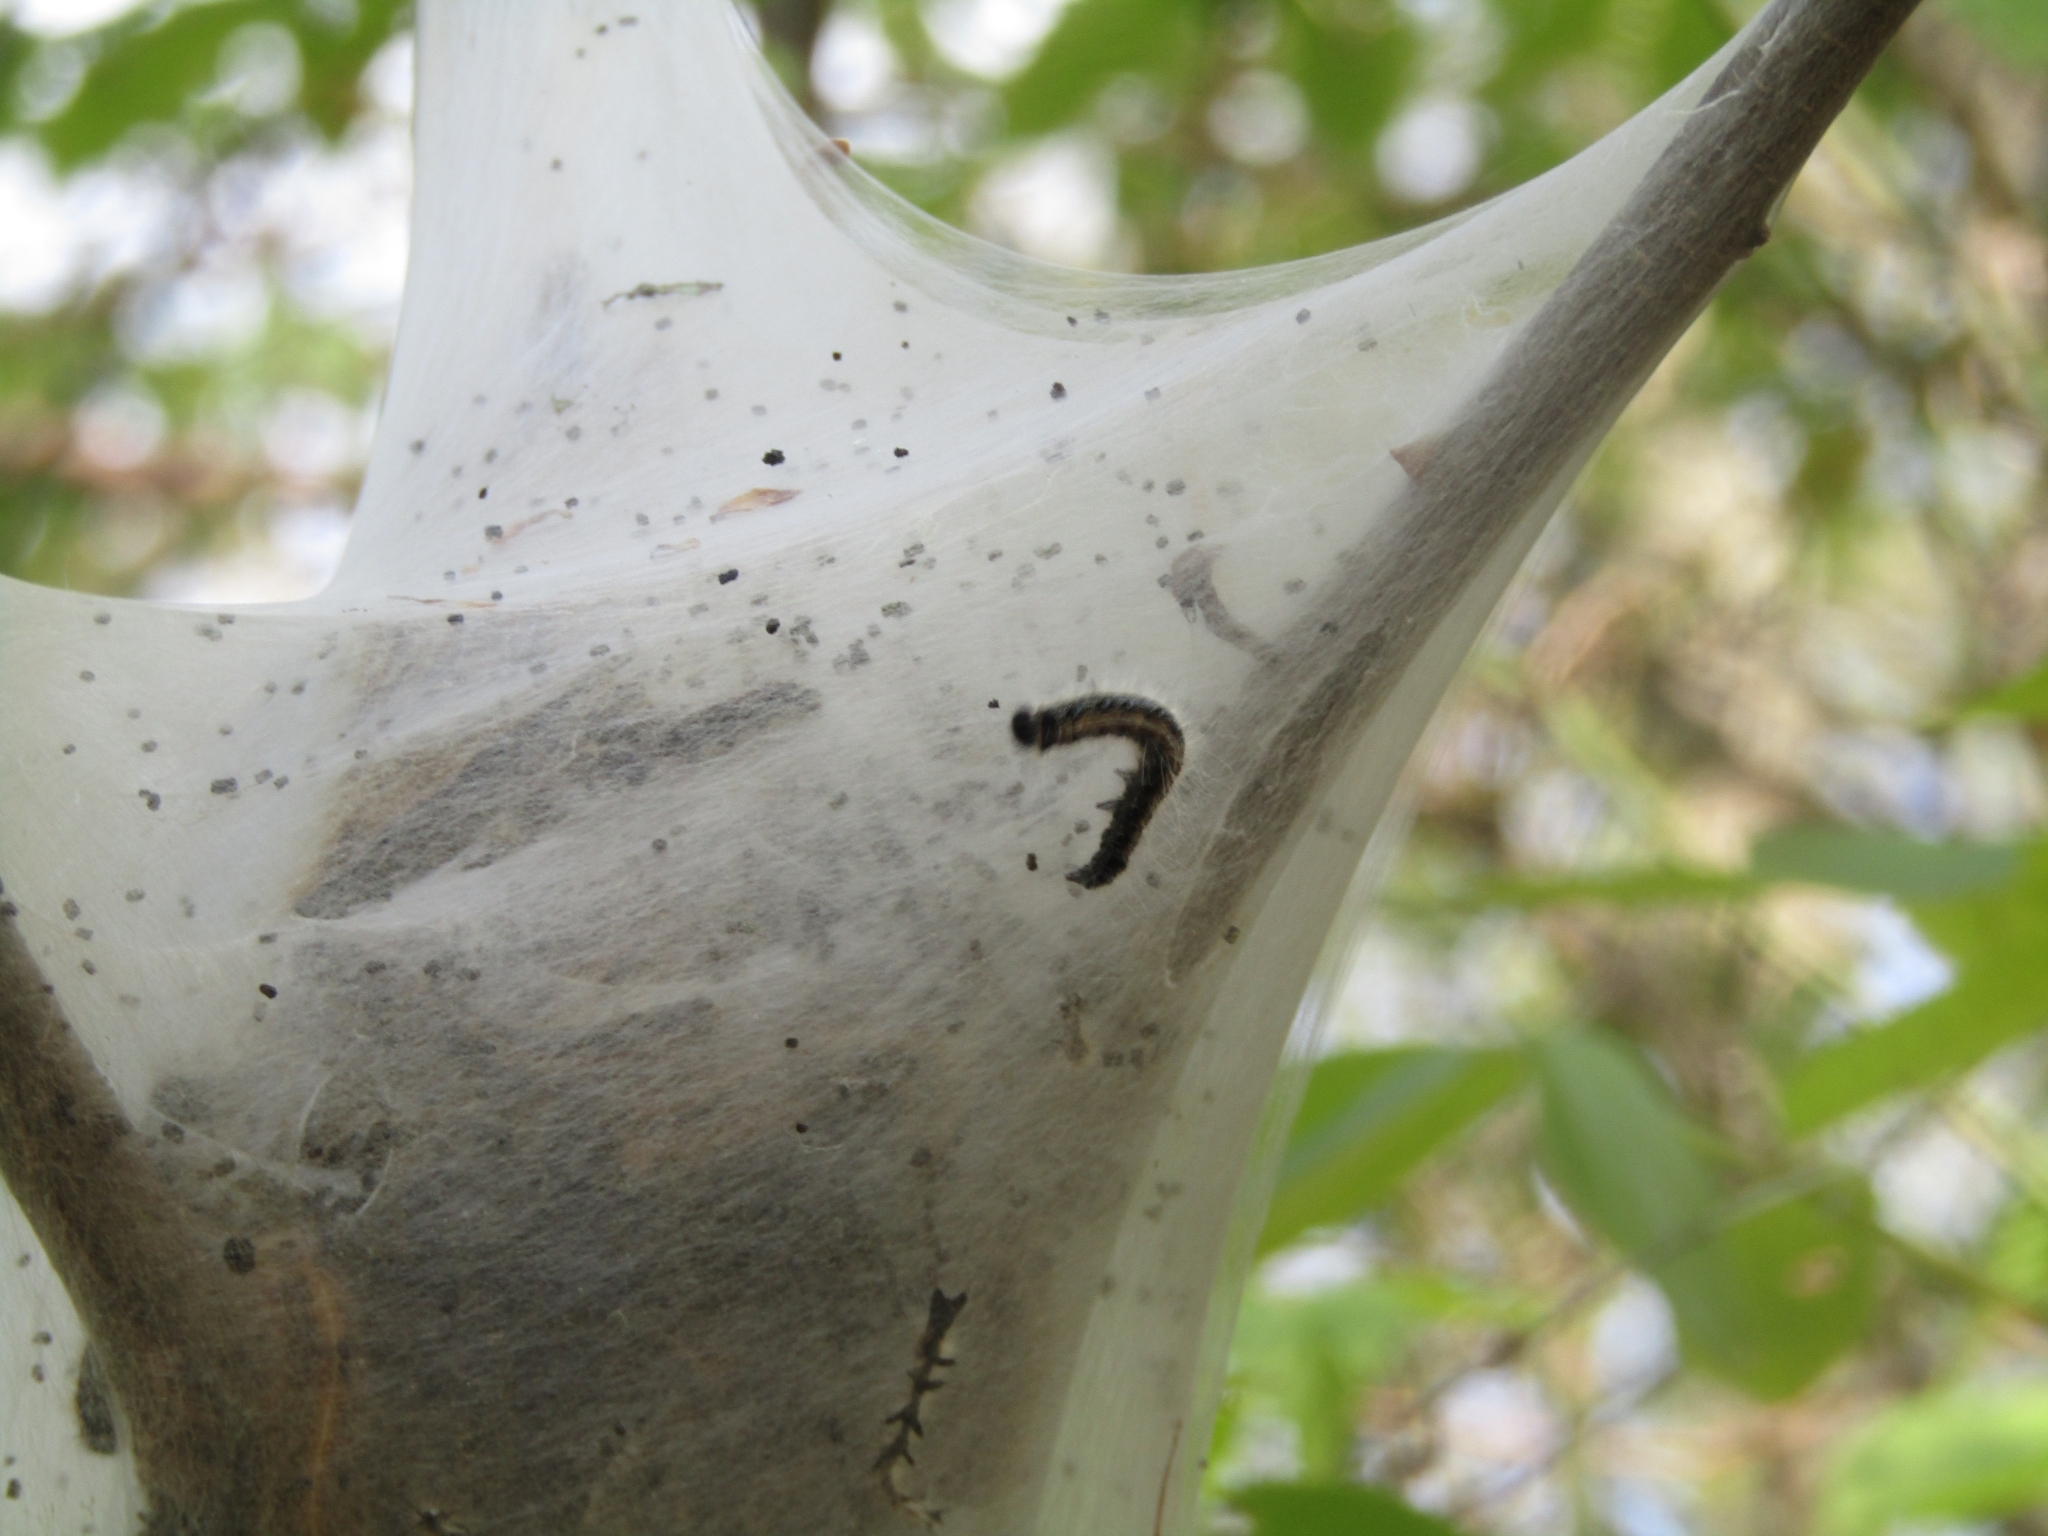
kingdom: Animalia
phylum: Arthropoda
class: Insecta
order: Lepidoptera
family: Lasiocampidae
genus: Malacosoma
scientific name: Malacosoma americana
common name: Eastern tent caterpillar moth
